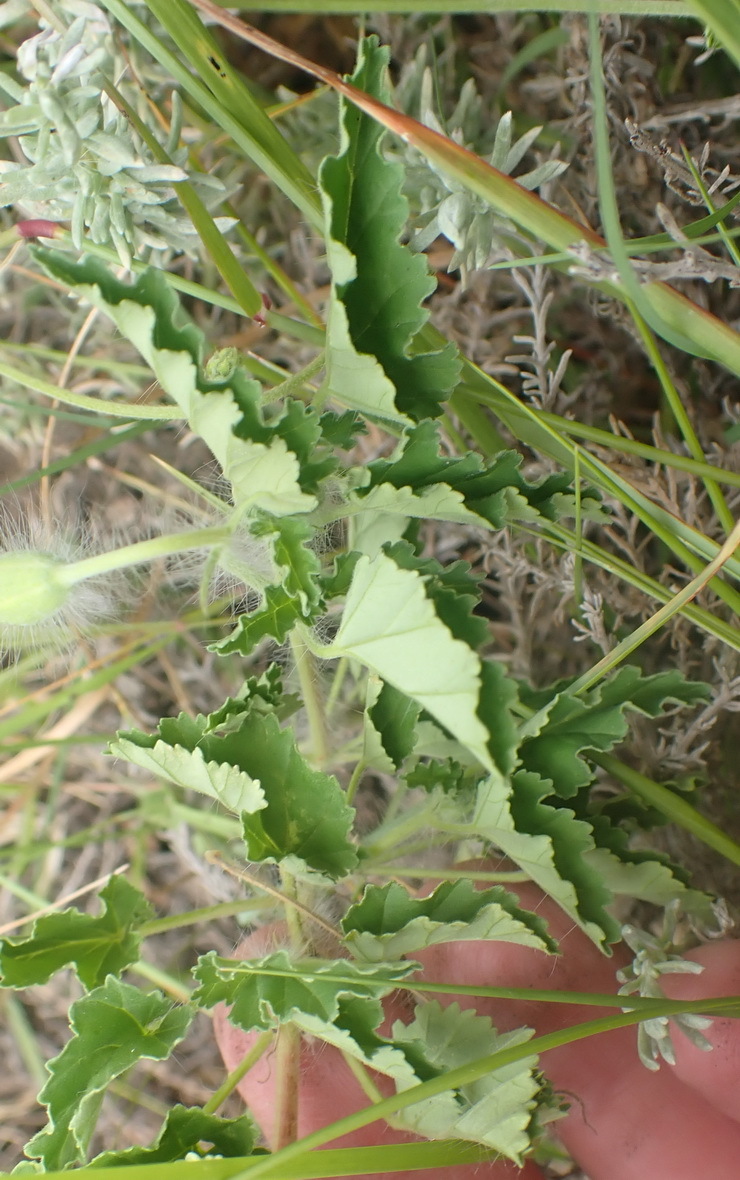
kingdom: Plantae
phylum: Tracheophyta
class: Magnoliopsida
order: Geraniales
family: Geraniaceae
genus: Monsonia
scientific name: Monsonia emarginata
